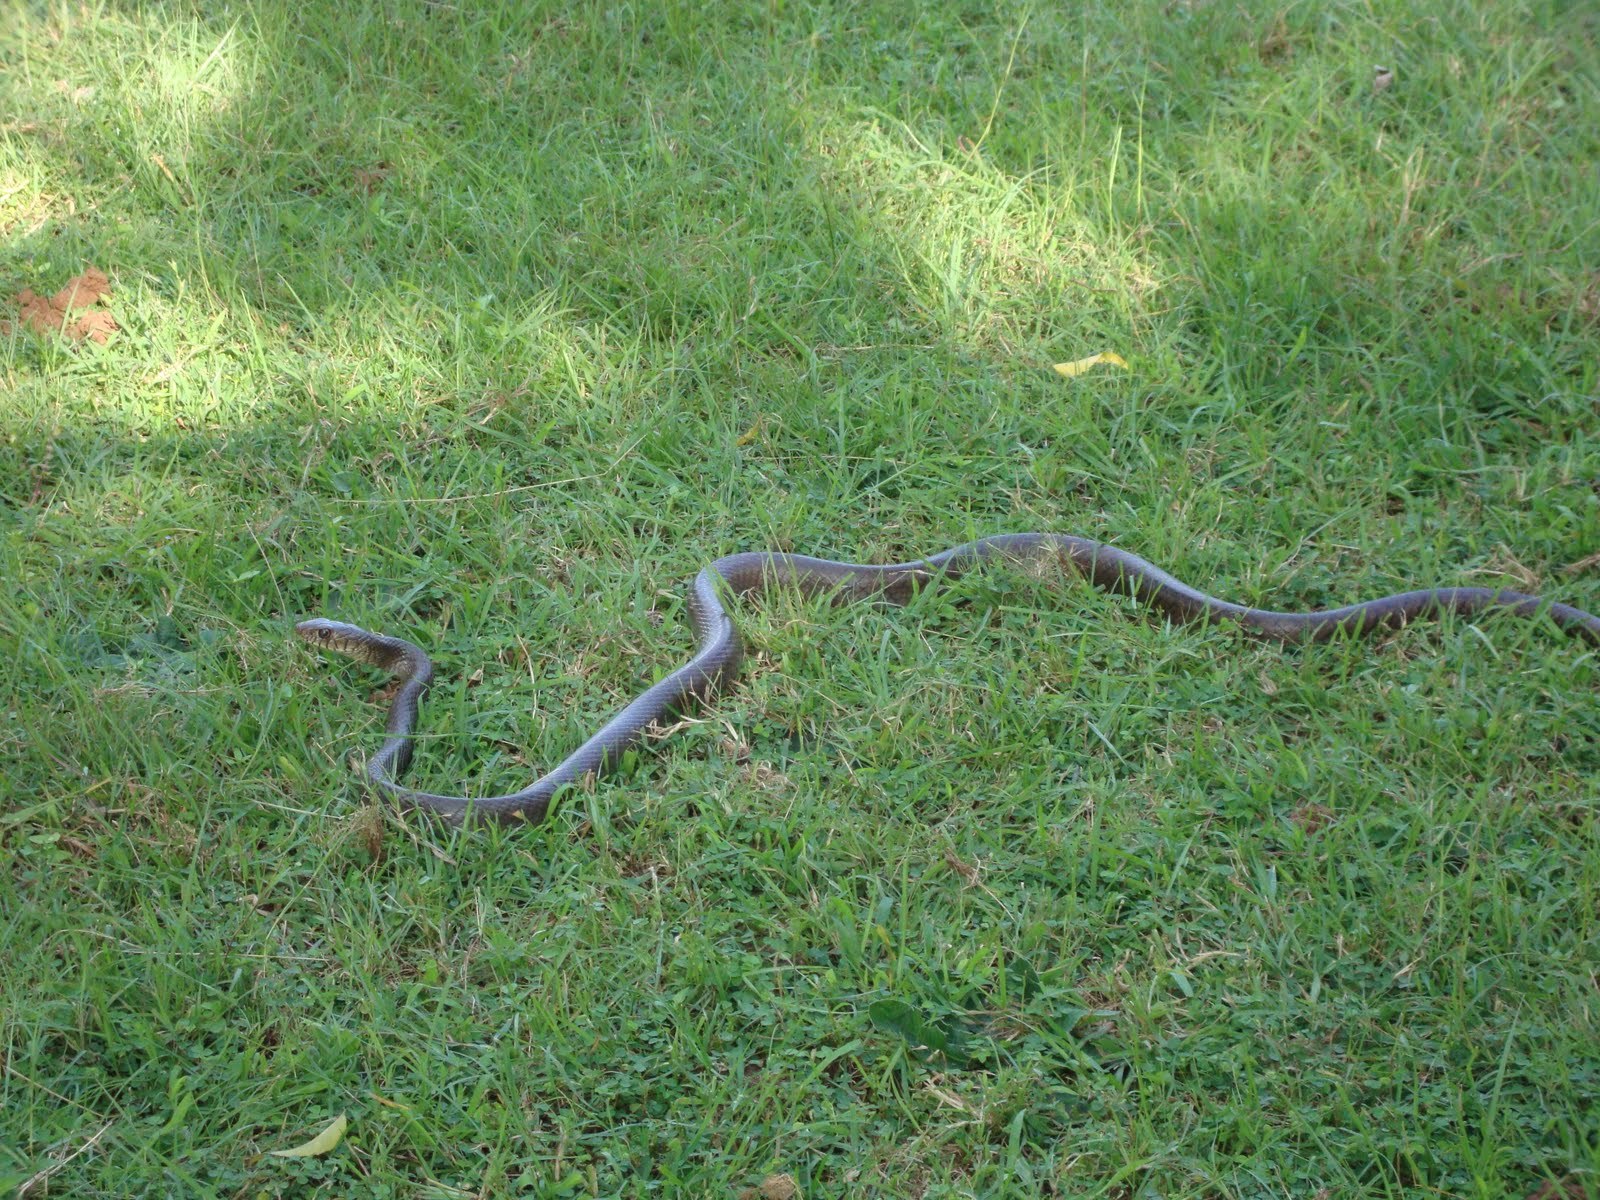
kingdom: Animalia
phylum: Chordata
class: Squamata
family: Colubridae
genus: Ptyas
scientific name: Ptyas mucosa
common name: Oriental ratsnake
